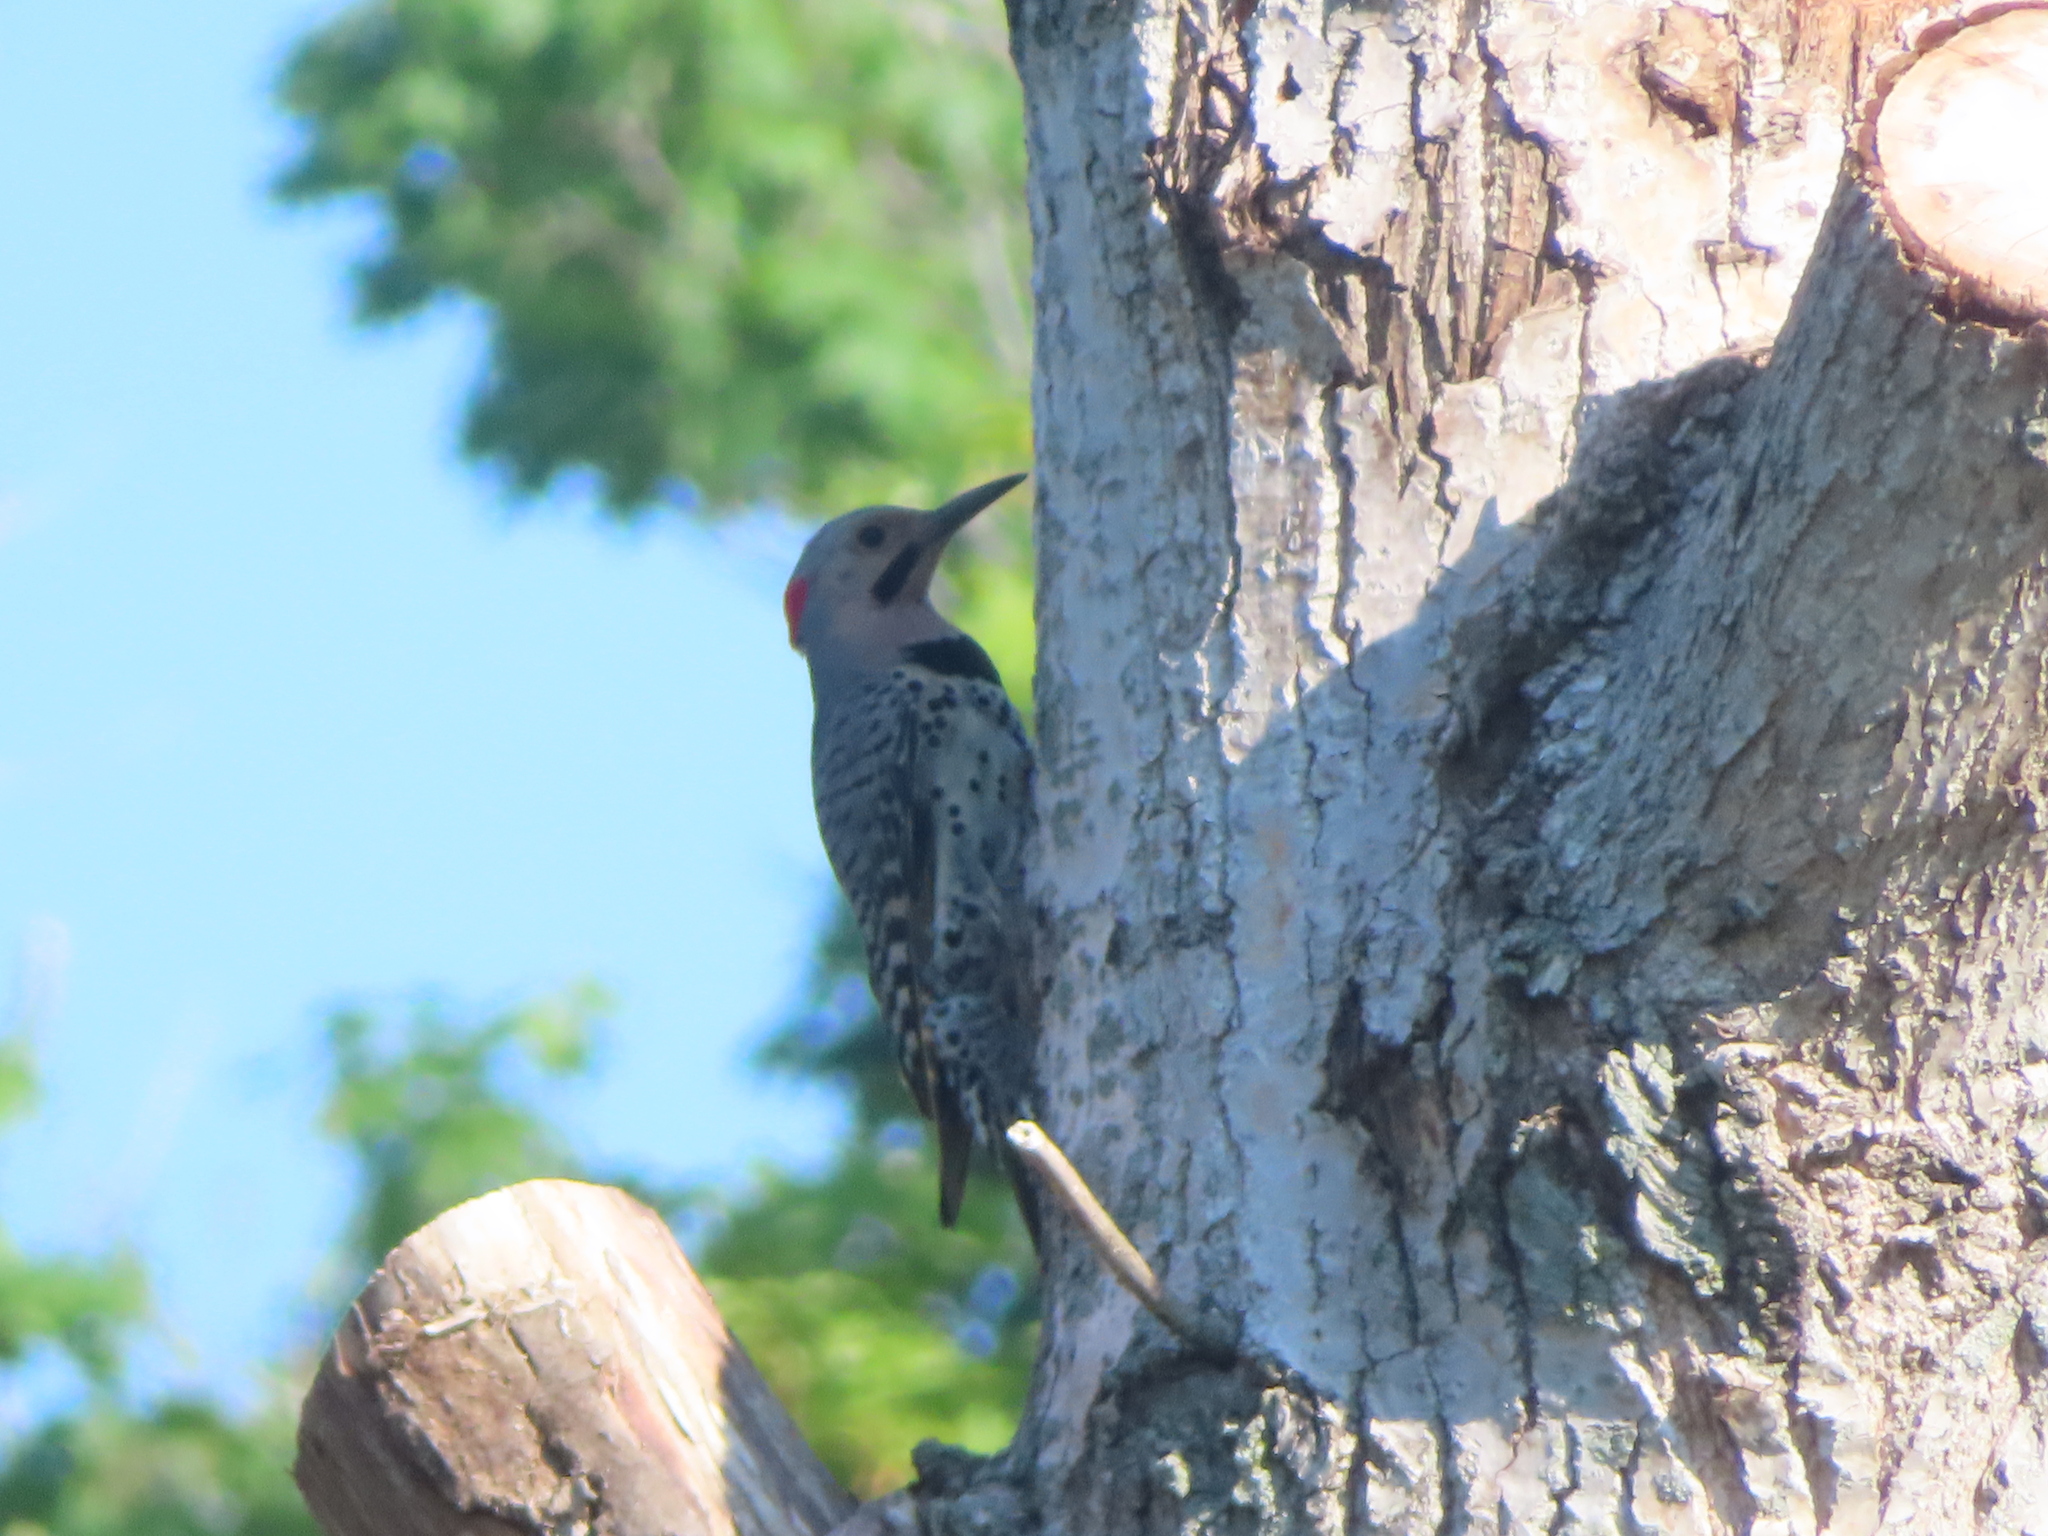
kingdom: Animalia
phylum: Chordata
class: Aves
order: Piciformes
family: Picidae
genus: Colaptes
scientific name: Colaptes auratus
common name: Northern flicker
